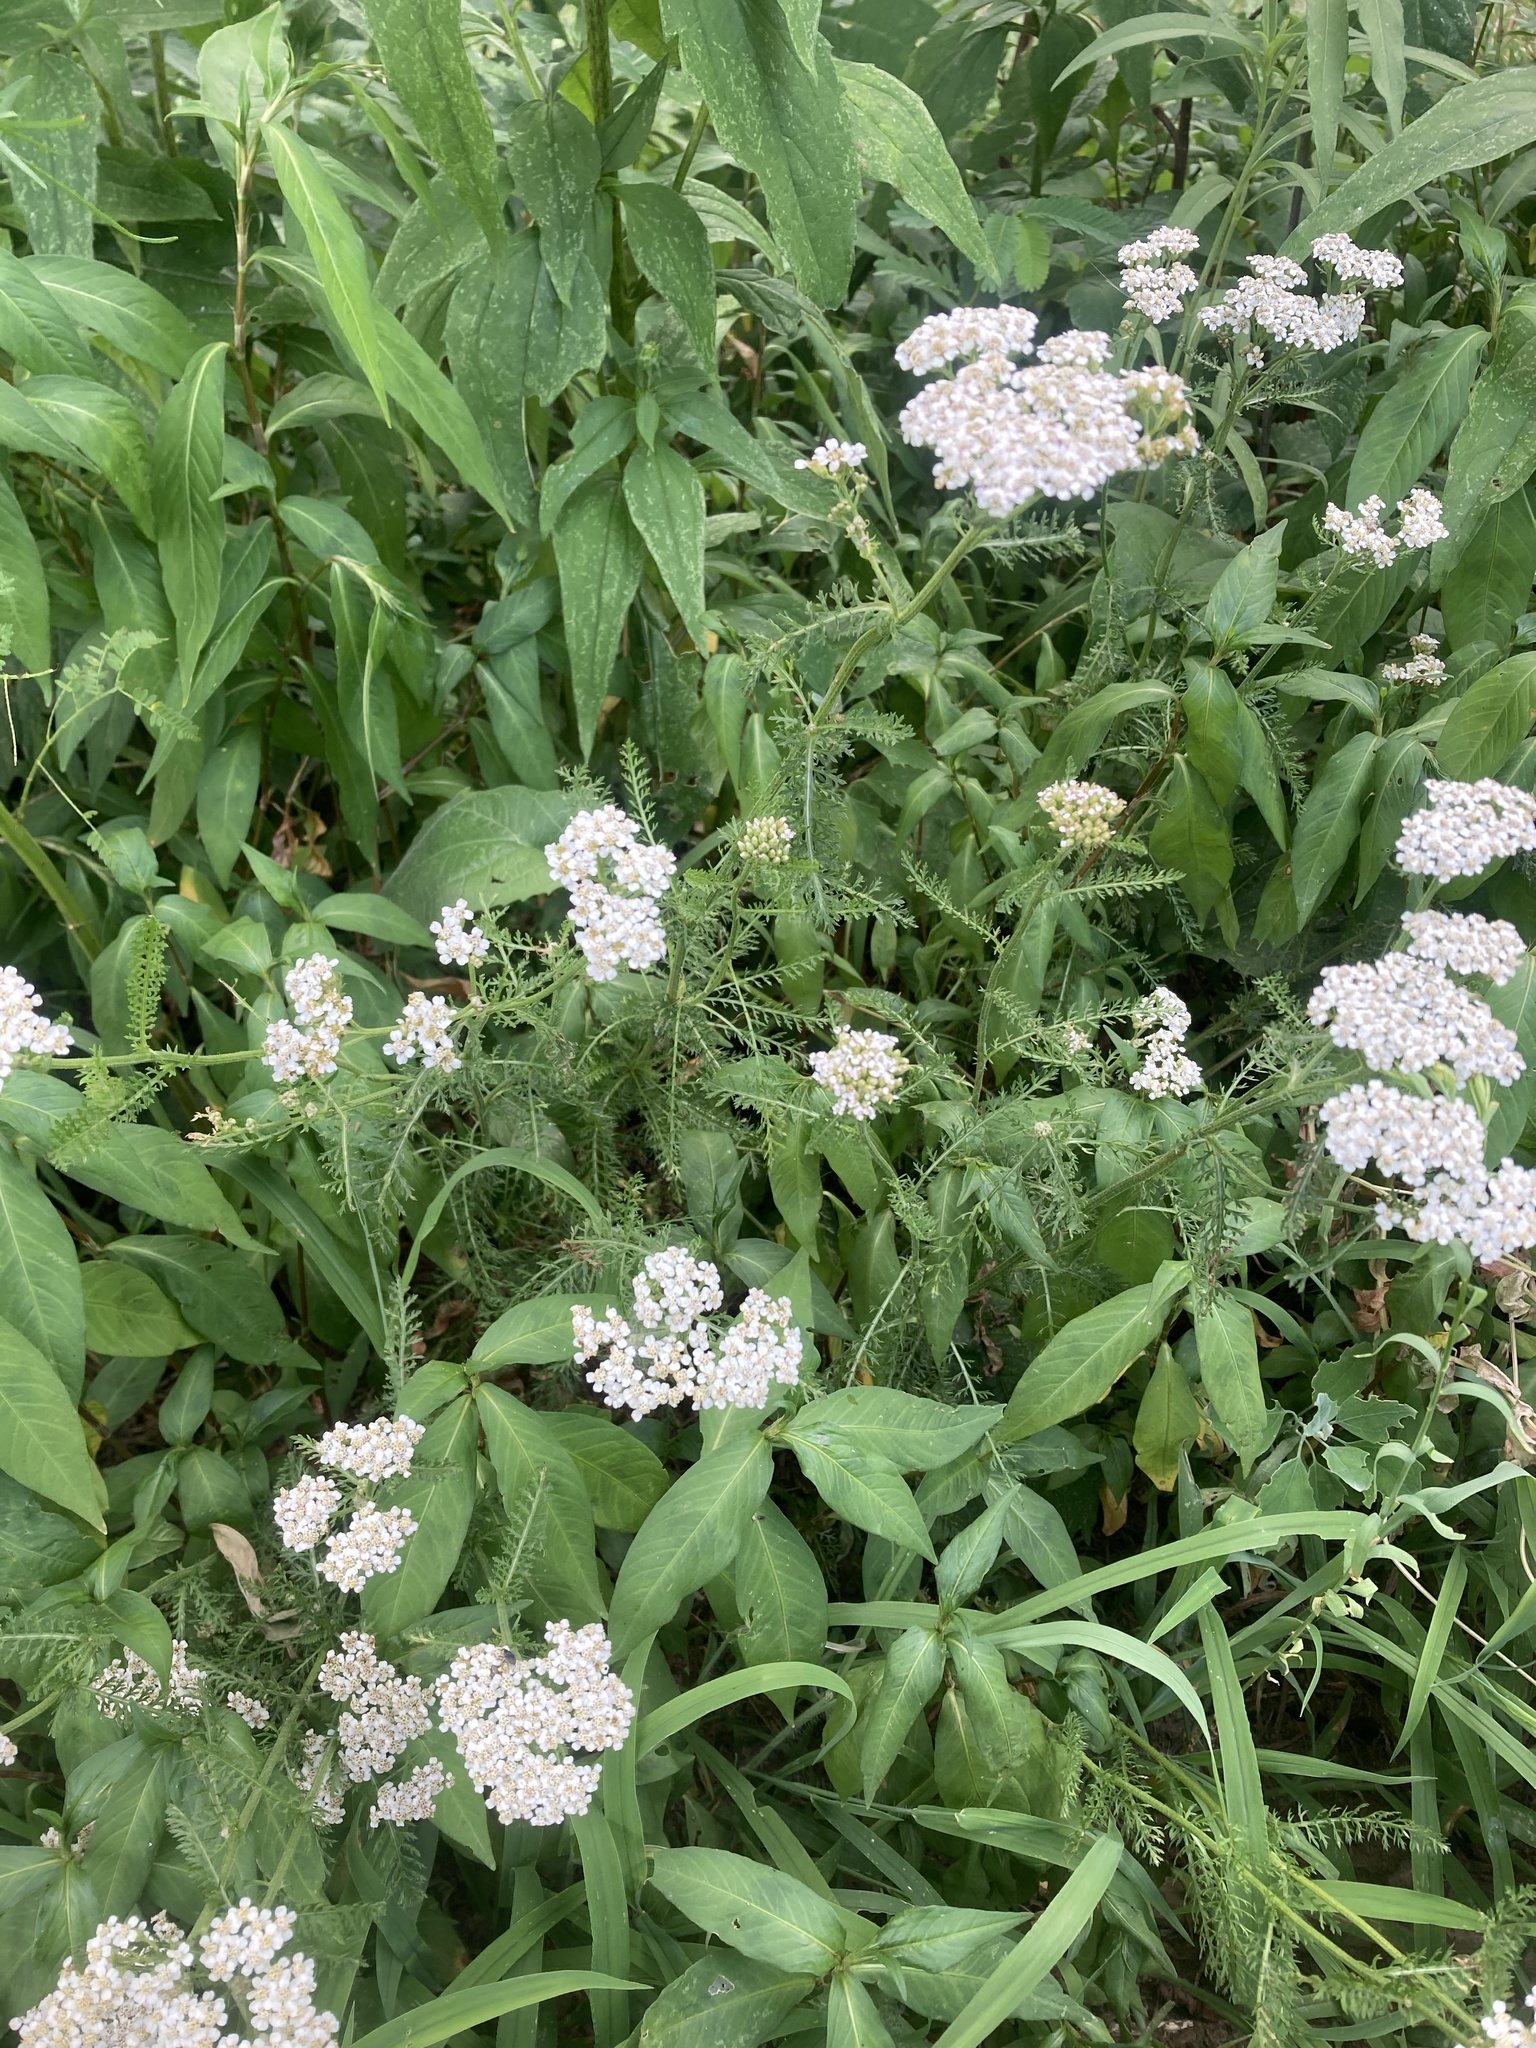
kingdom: Plantae
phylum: Tracheophyta
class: Magnoliopsida
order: Asterales
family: Asteraceae
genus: Achillea
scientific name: Achillea millefolium
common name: Yarrow
